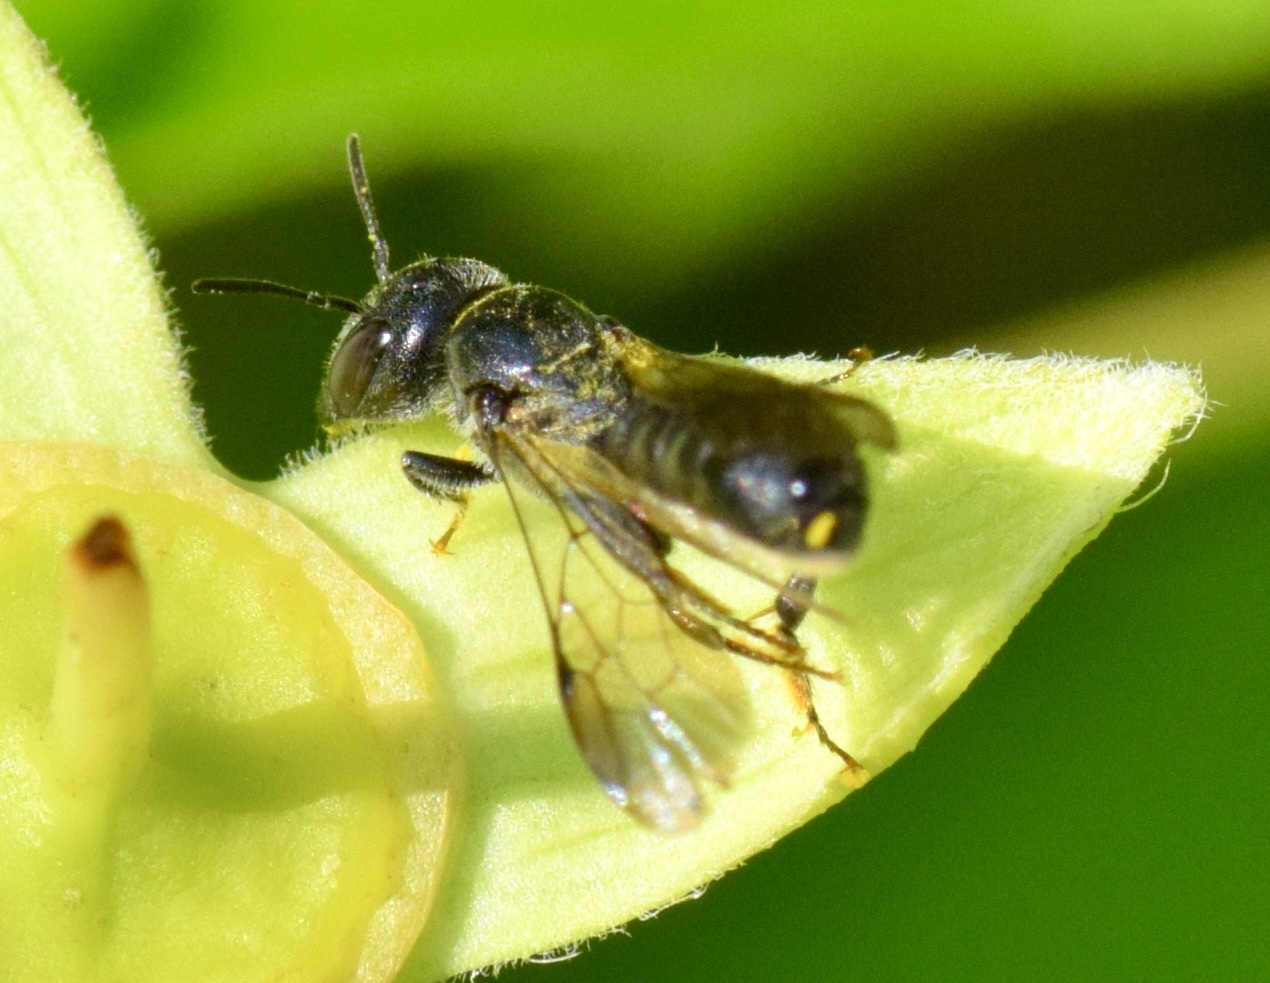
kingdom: Animalia
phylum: Arthropoda
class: Insecta
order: Hymenoptera
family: Megachilidae
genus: Chelostoma
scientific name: Chelostoma philadelphi
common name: Mock-orange scissor bee
